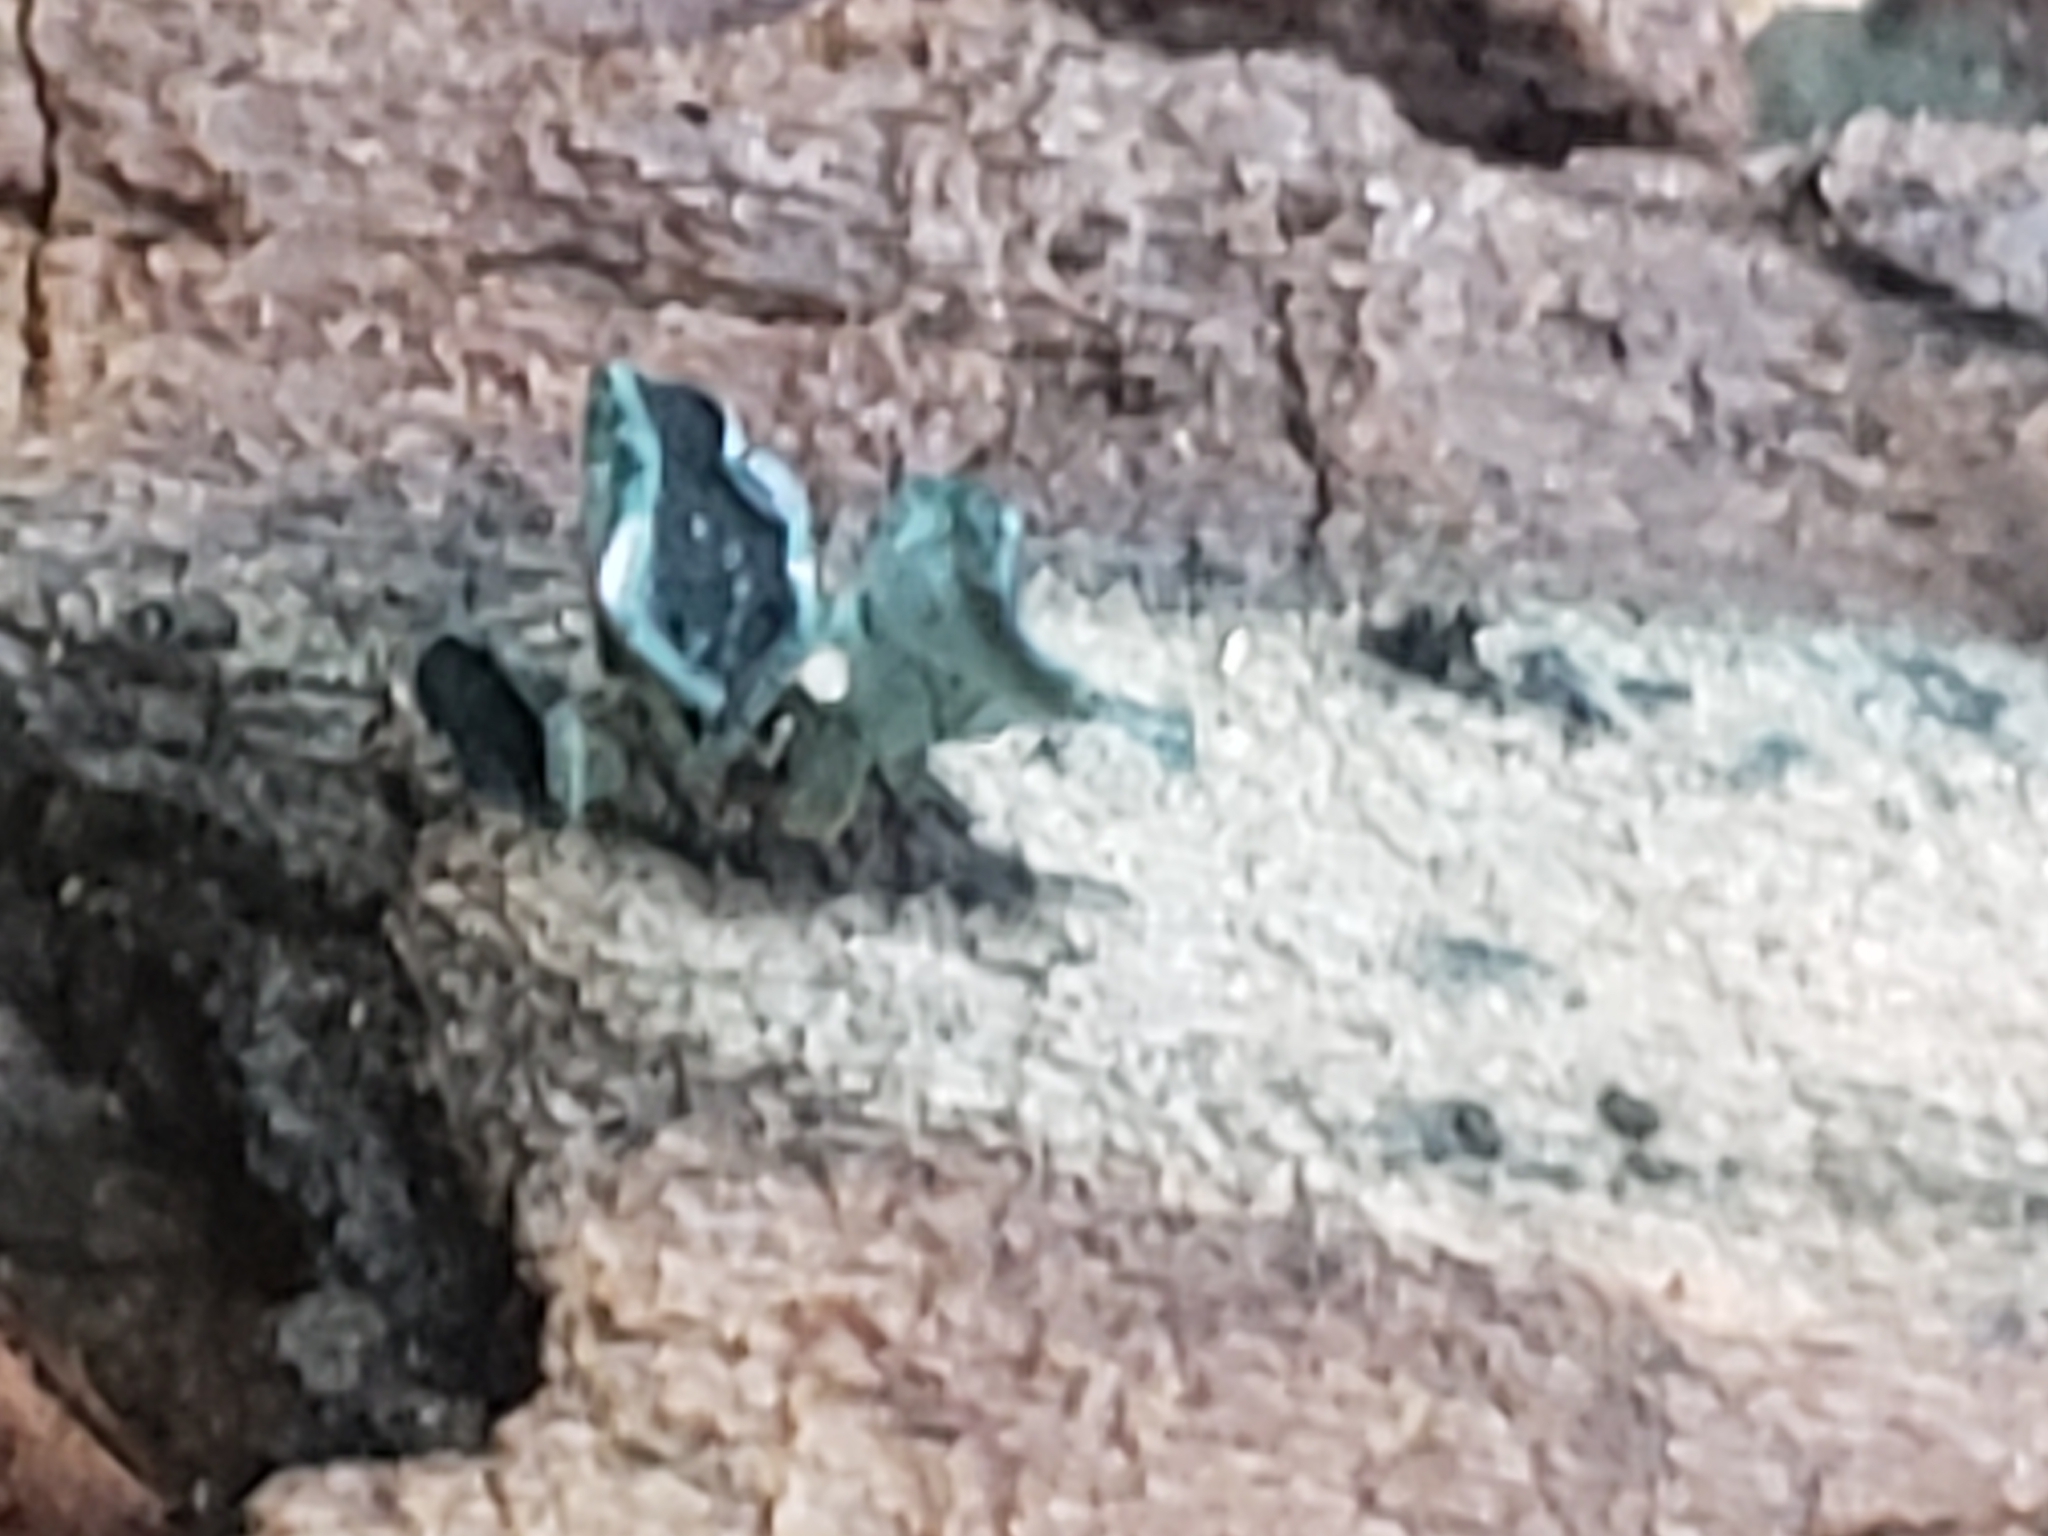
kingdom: Fungi
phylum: Ascomycota
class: Leotiomycetes
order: Helotiales
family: Chlorociboriaceae
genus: Chlorociboria
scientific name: Chlorociboria aeruginascens
